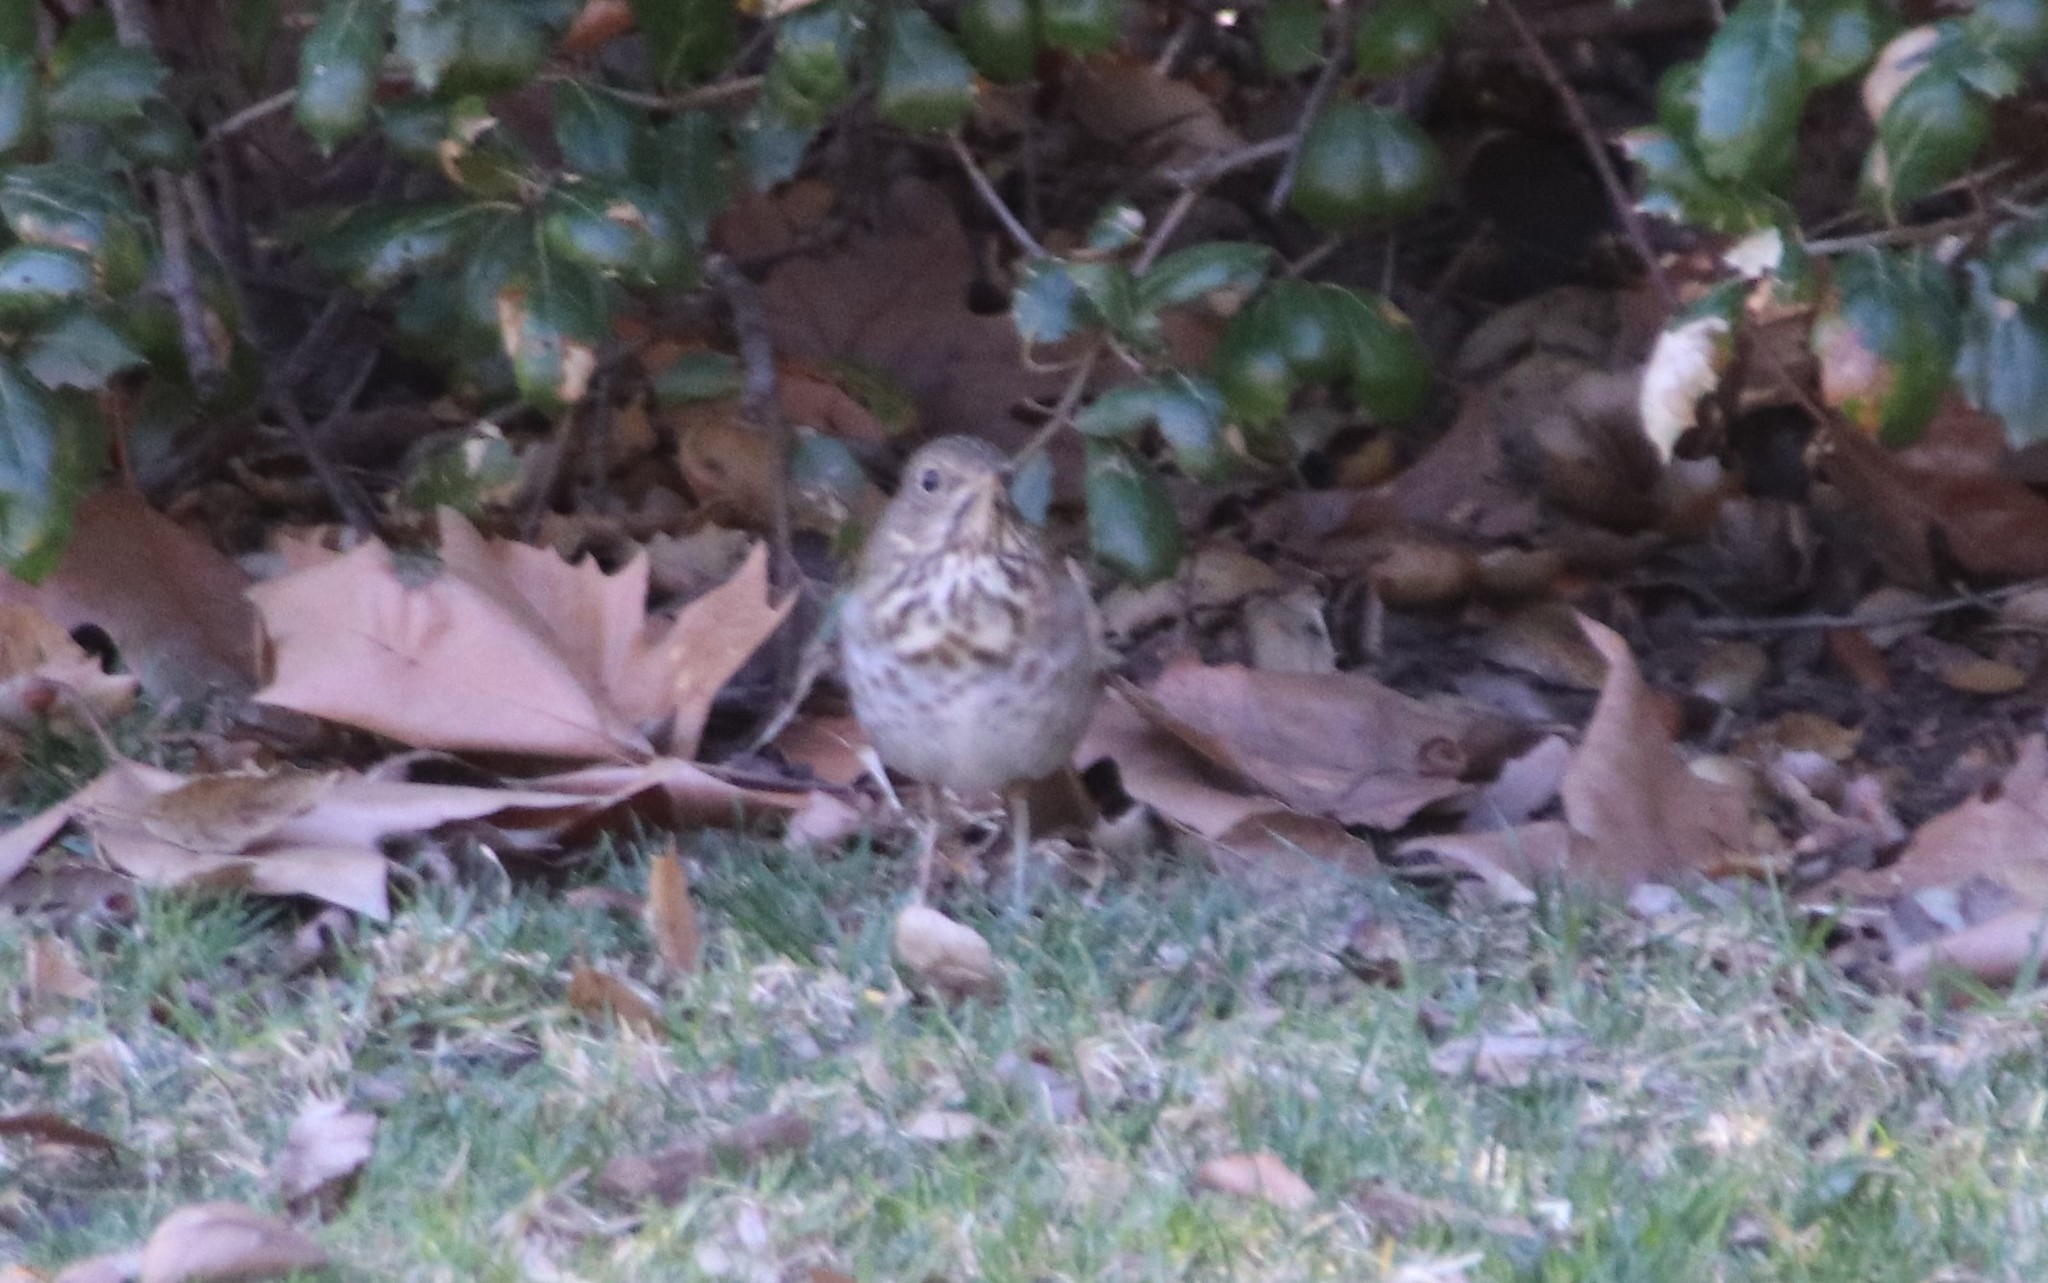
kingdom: Animalia
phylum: Chordata
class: Aves
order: Passeriformes
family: Turdidae
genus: Catharus
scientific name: Catharus guttatus
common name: Hermit thrush
